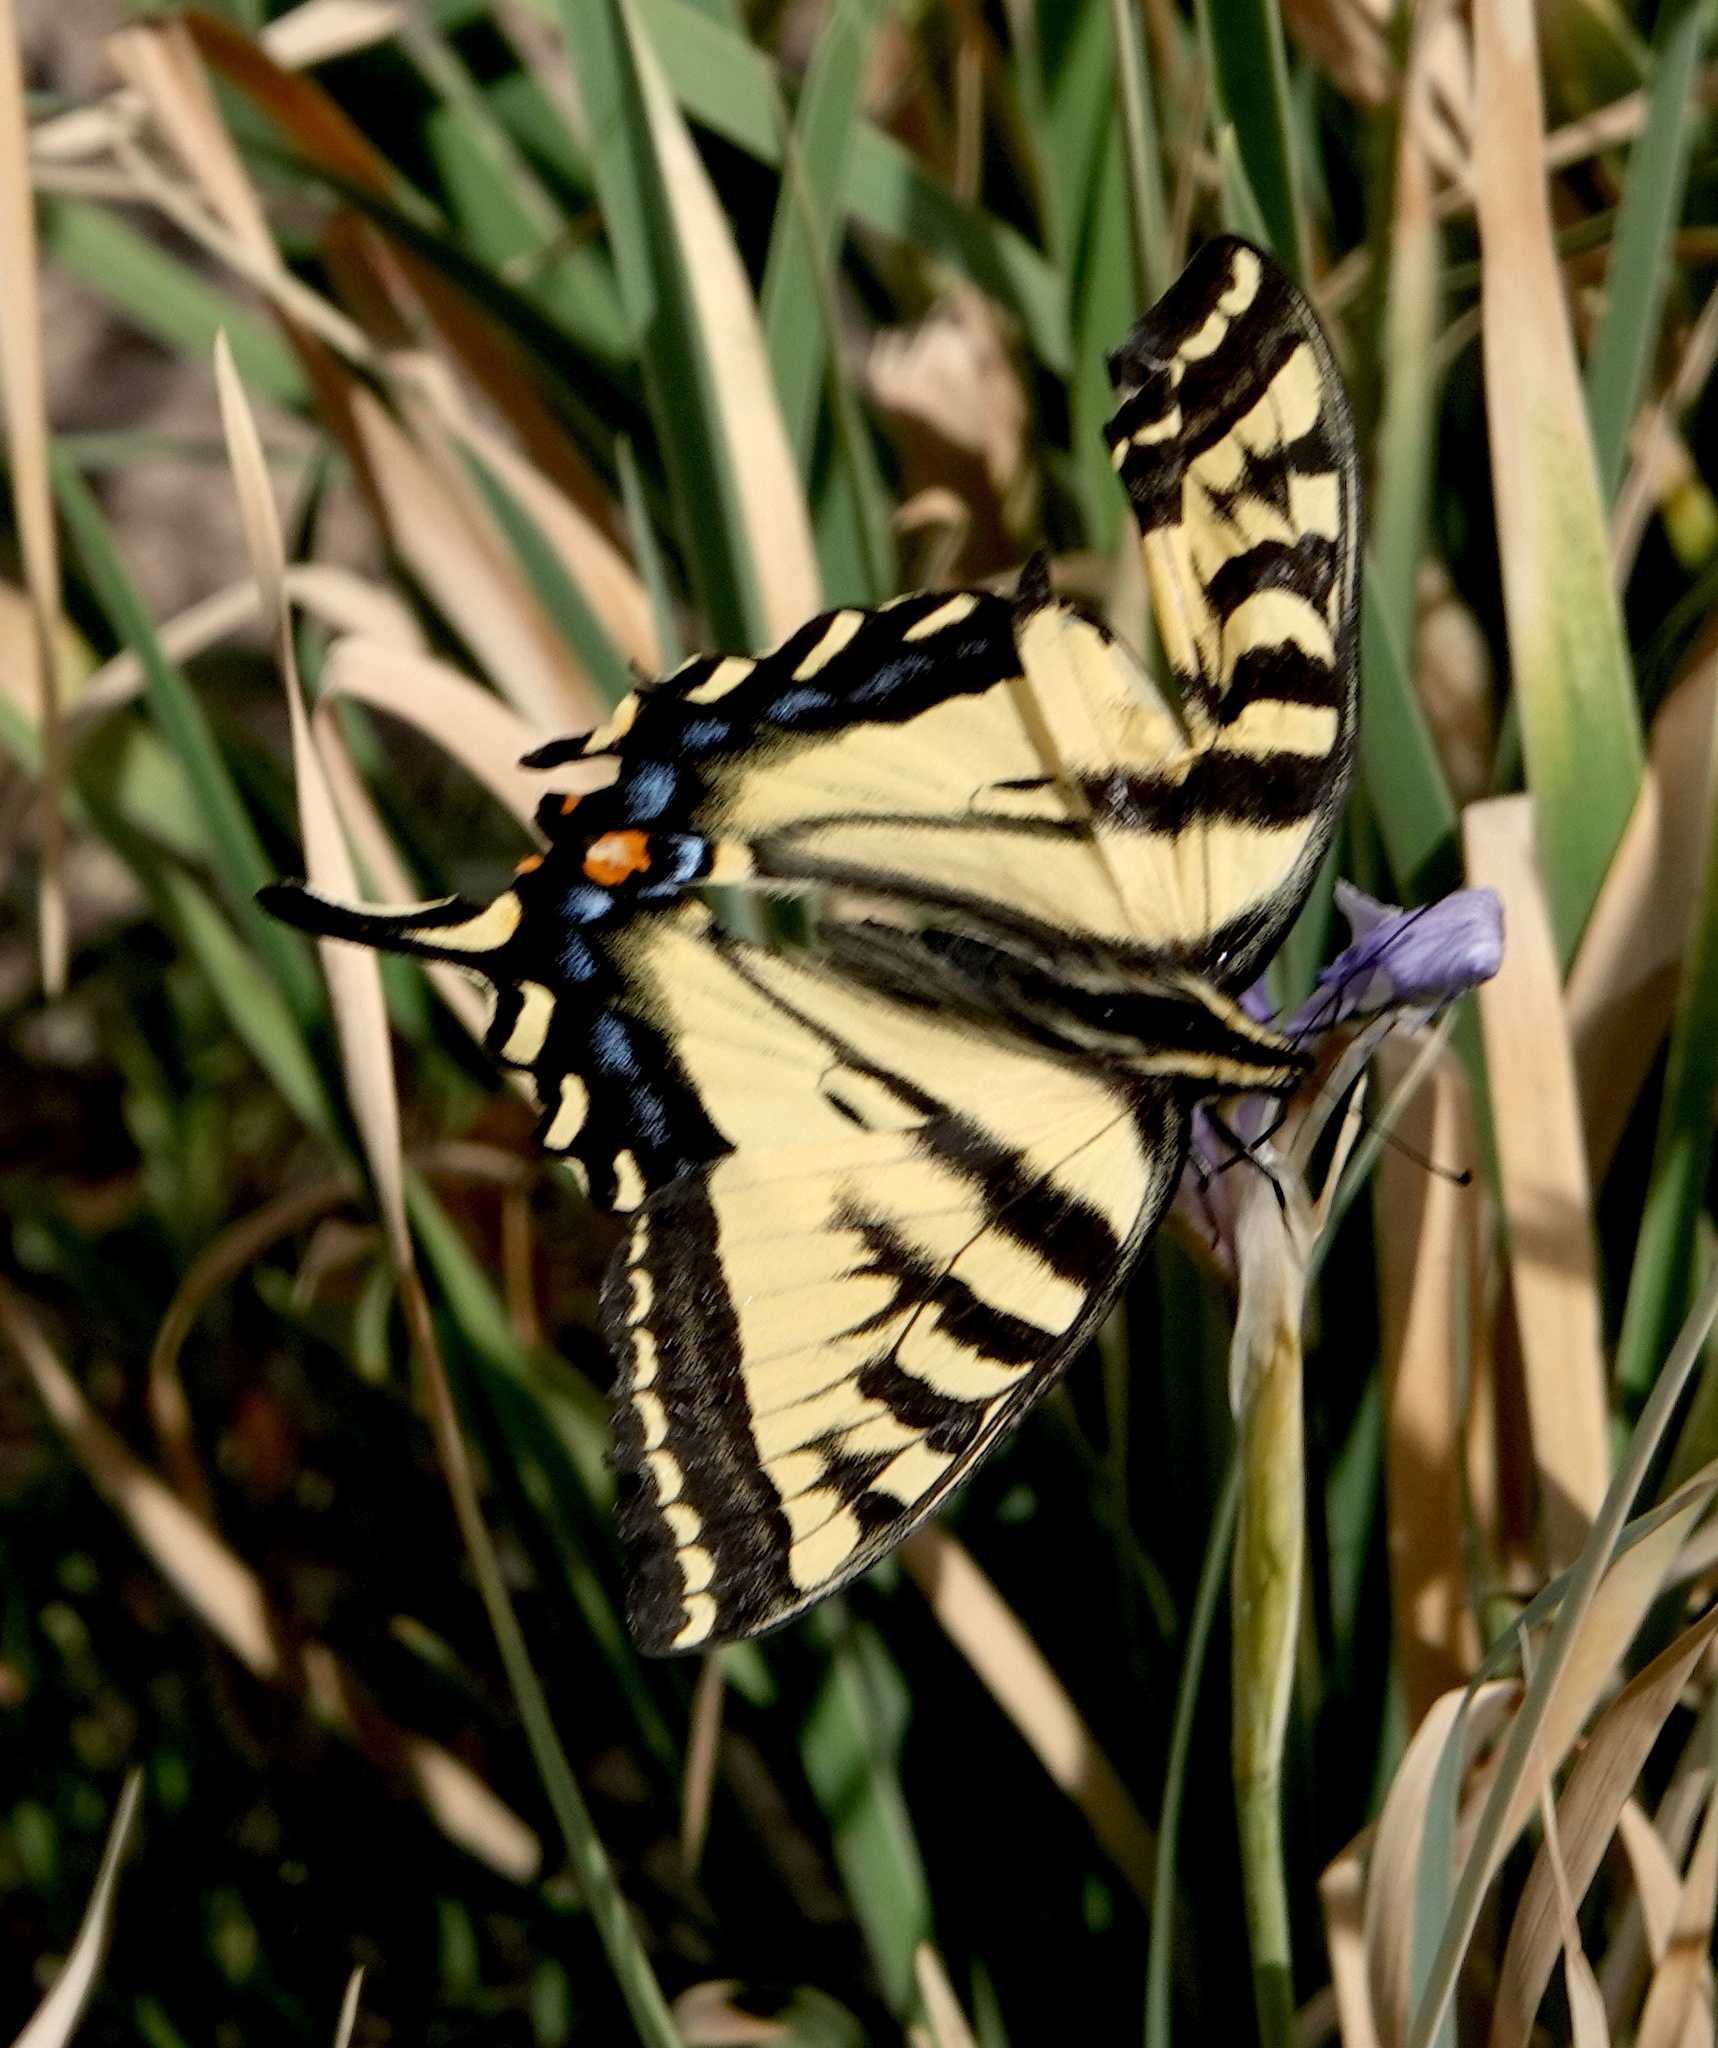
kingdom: Animalia
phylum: Arthropoda
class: Insecta
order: Lepidoptera
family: Papilionidae
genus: Papilio
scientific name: Papilio rutulus
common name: Western tiger swallowtail
